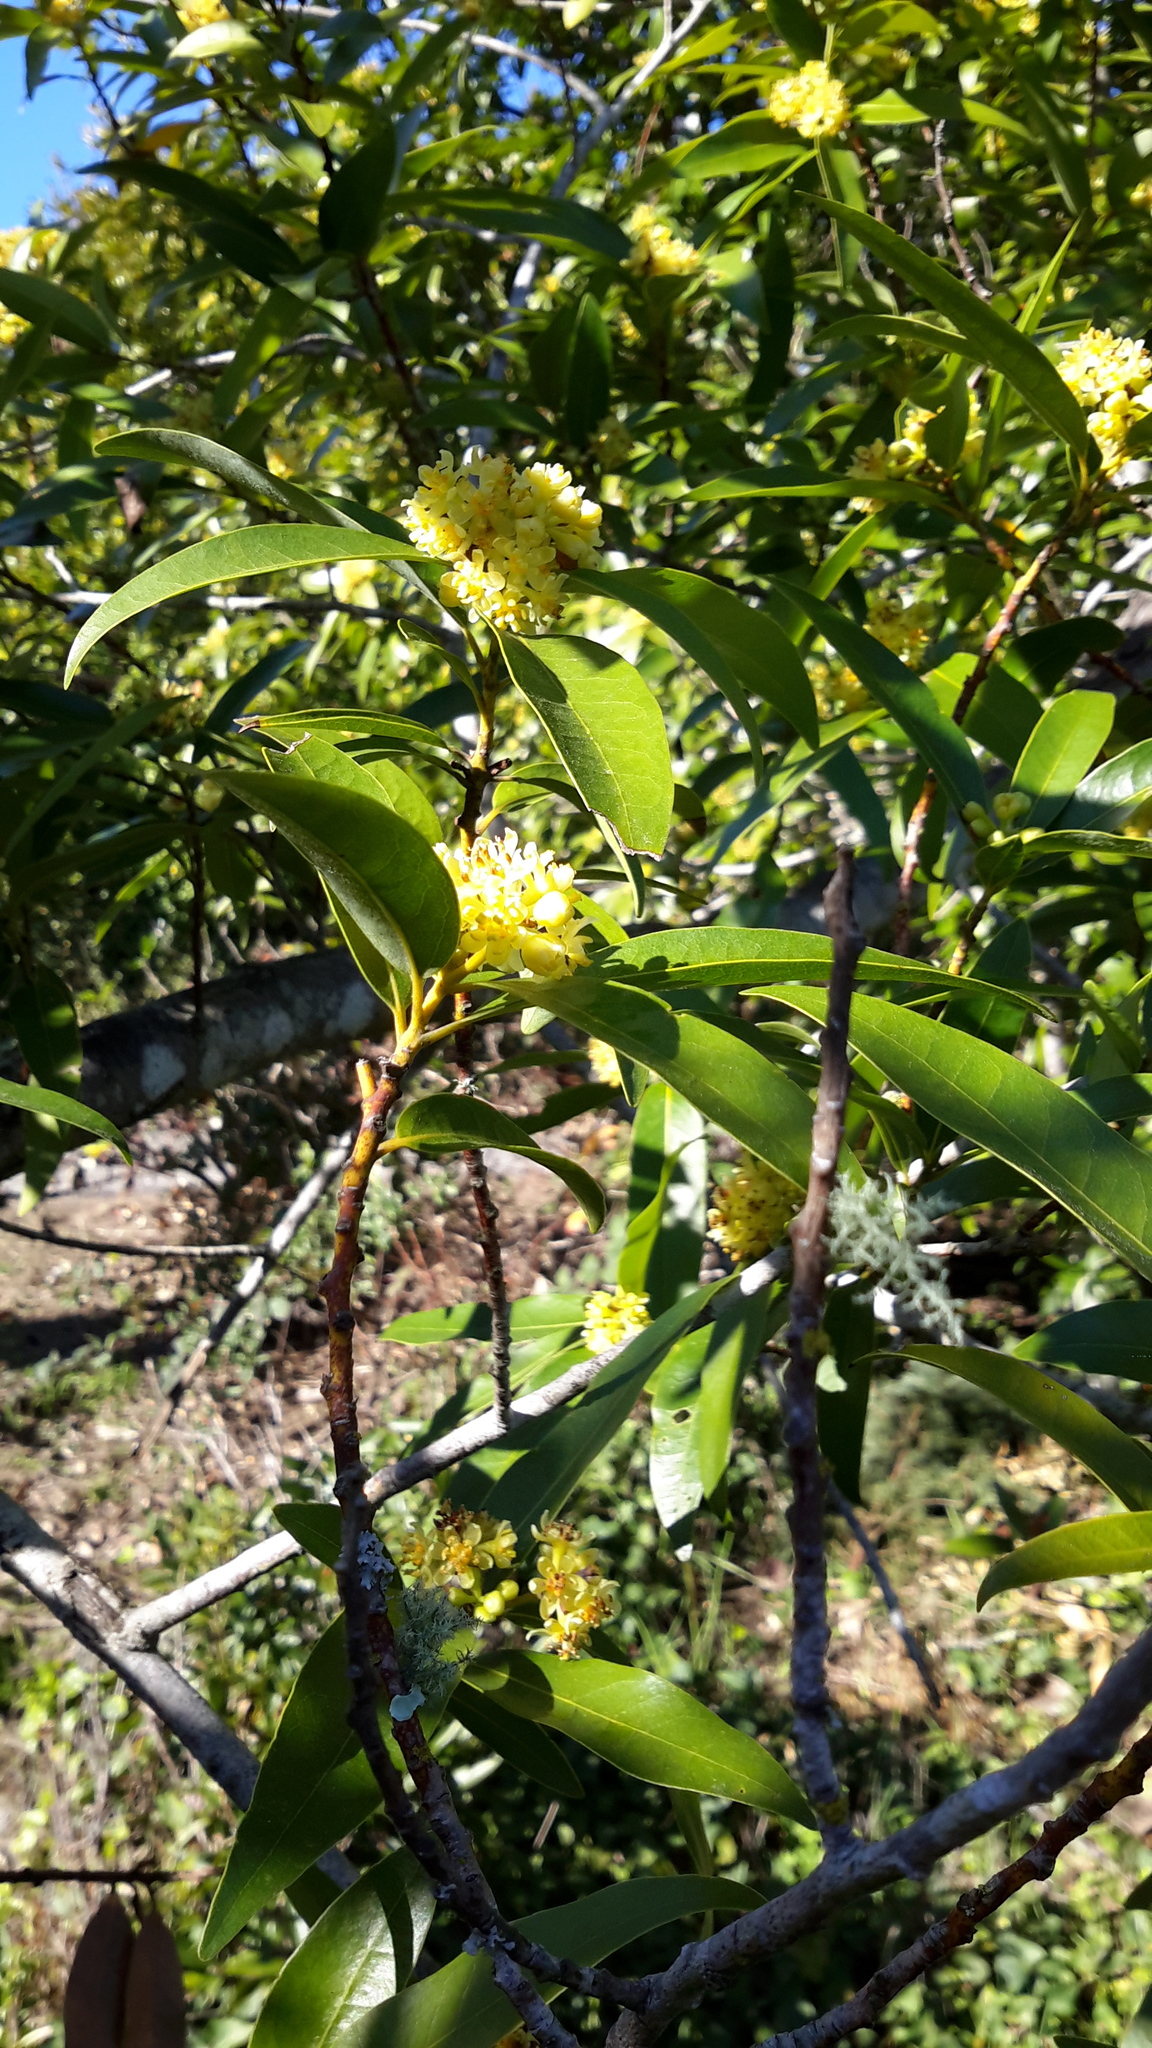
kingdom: Plantae
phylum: Tracheophyta
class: Magnoliopsida
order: Laurales
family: Lauraceae
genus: Umbellularia
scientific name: Umbellularia californica
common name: California bay
